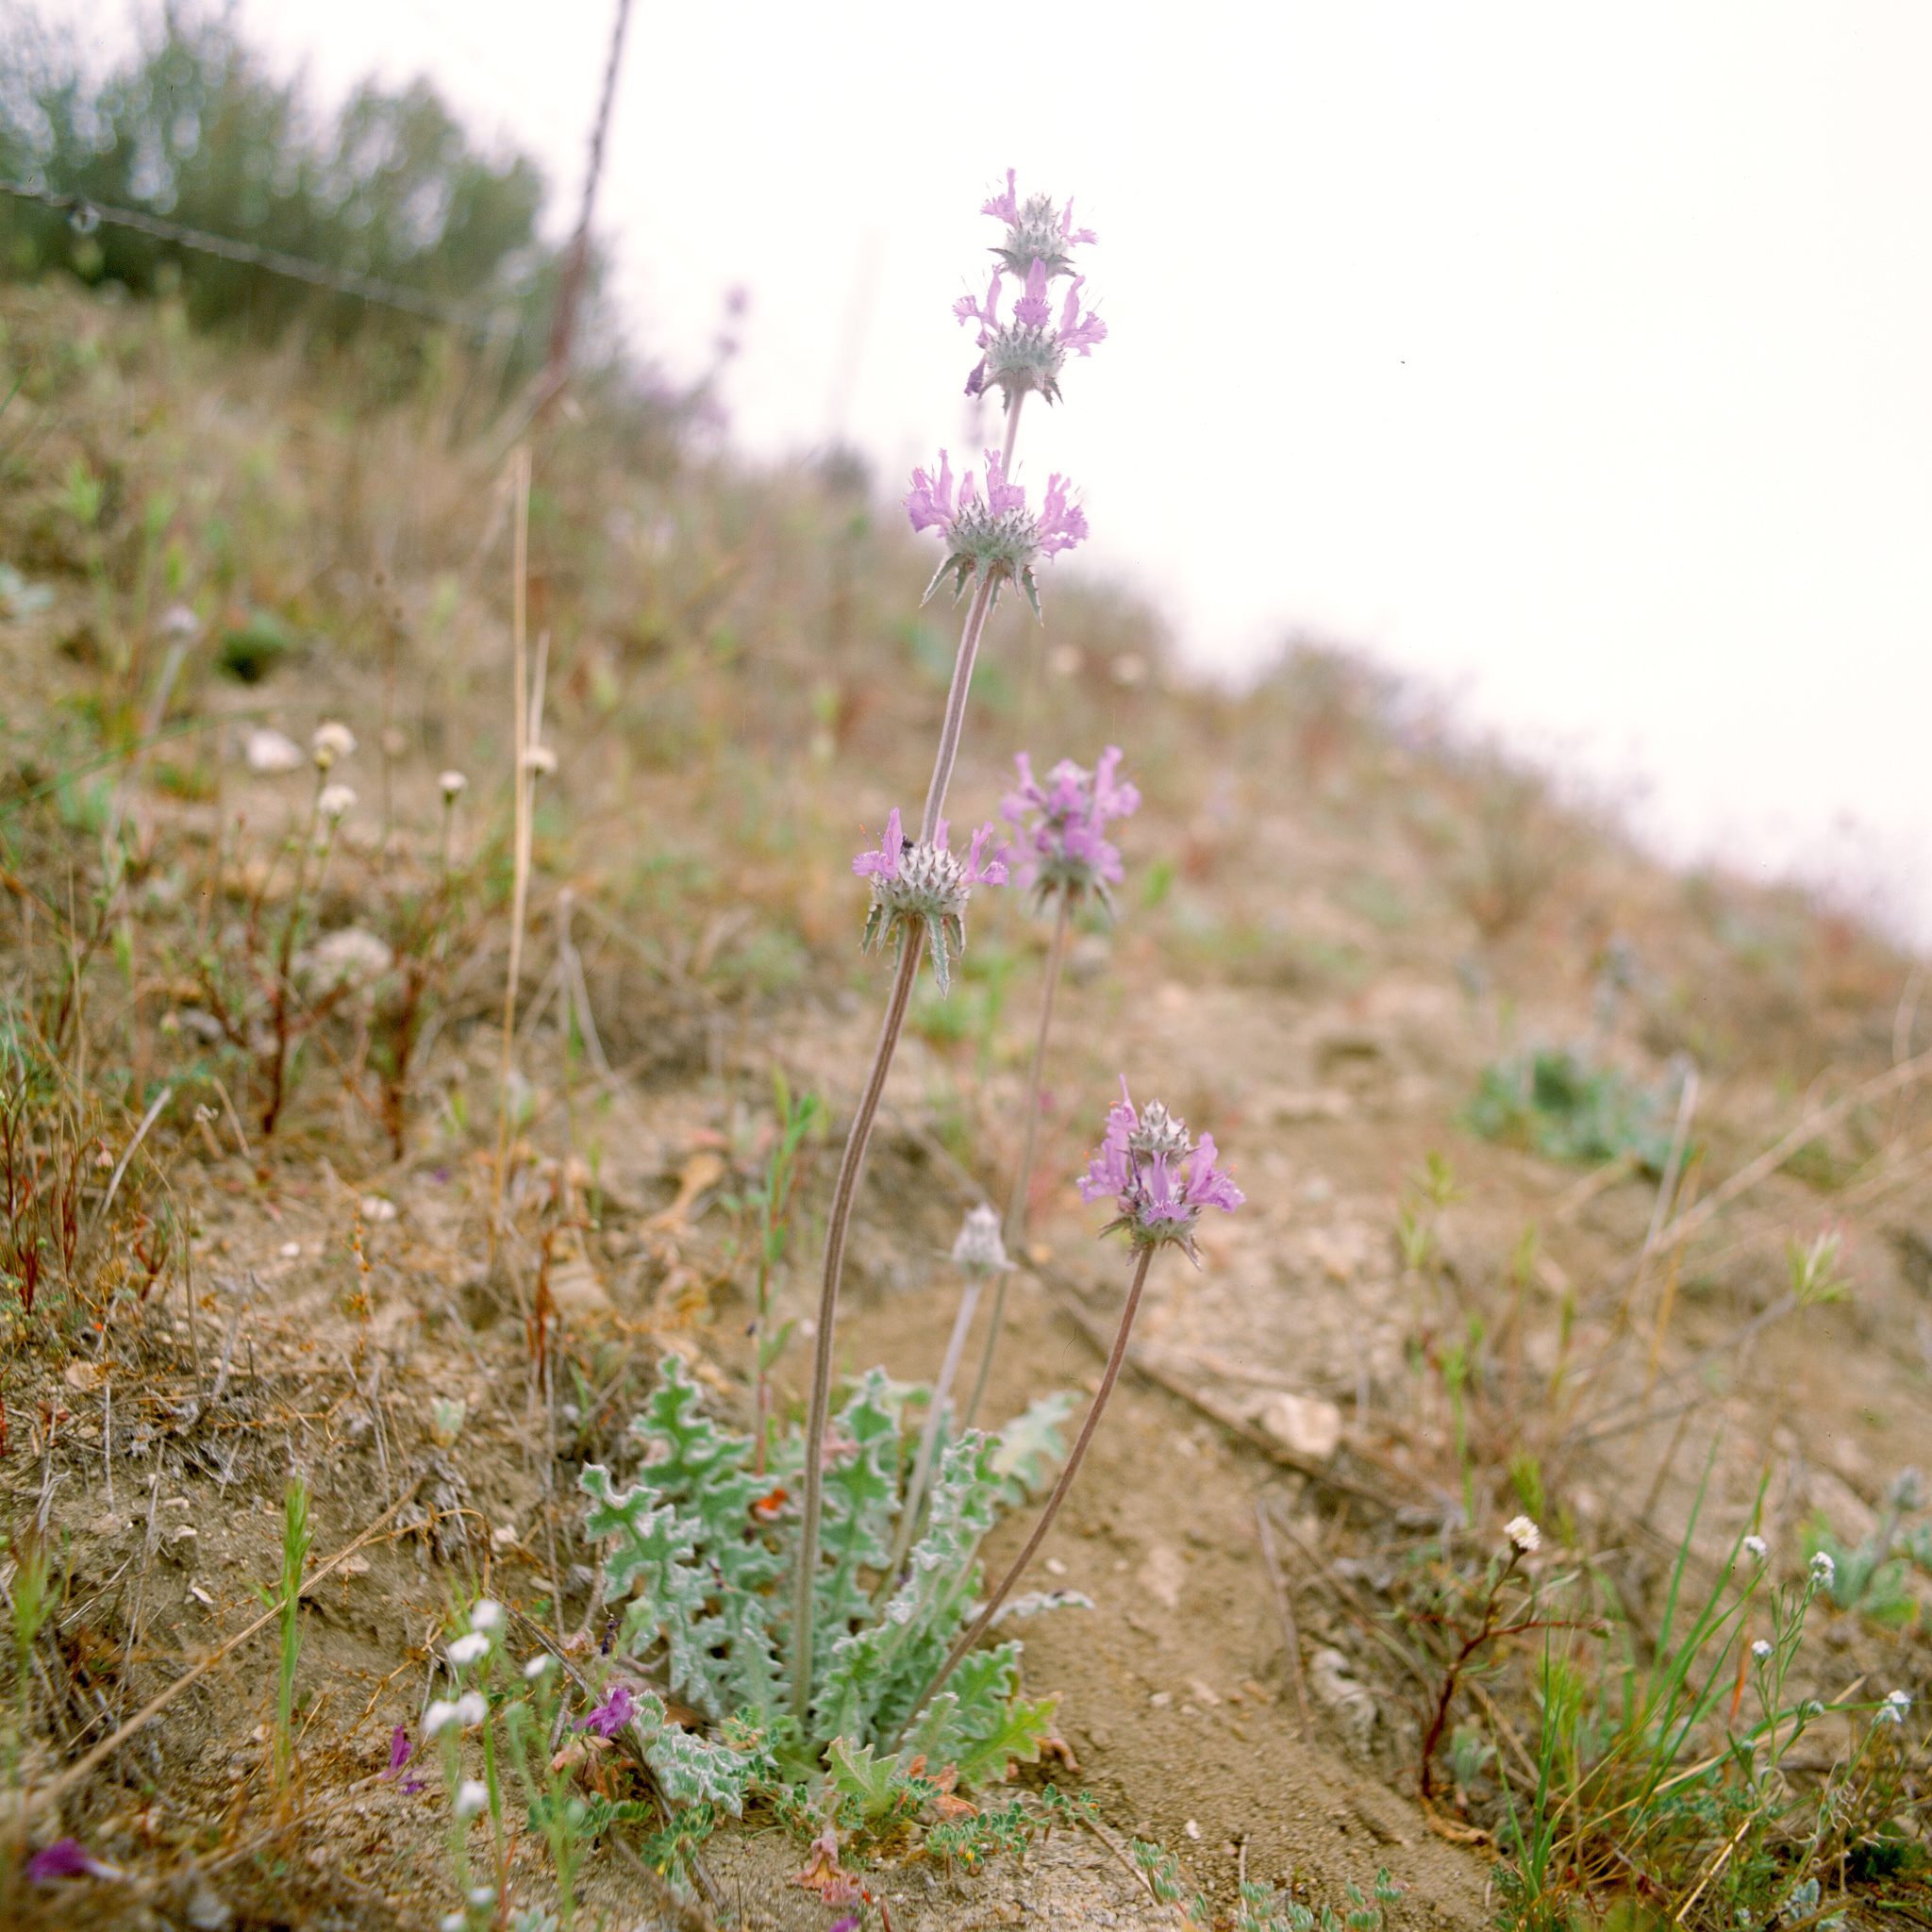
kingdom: Plantae
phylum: Tracheophyta
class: Magnoliopsida
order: Lamiales
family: Lamiaceae
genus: Salvia
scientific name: Salvia carduacea
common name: Thistle sage
